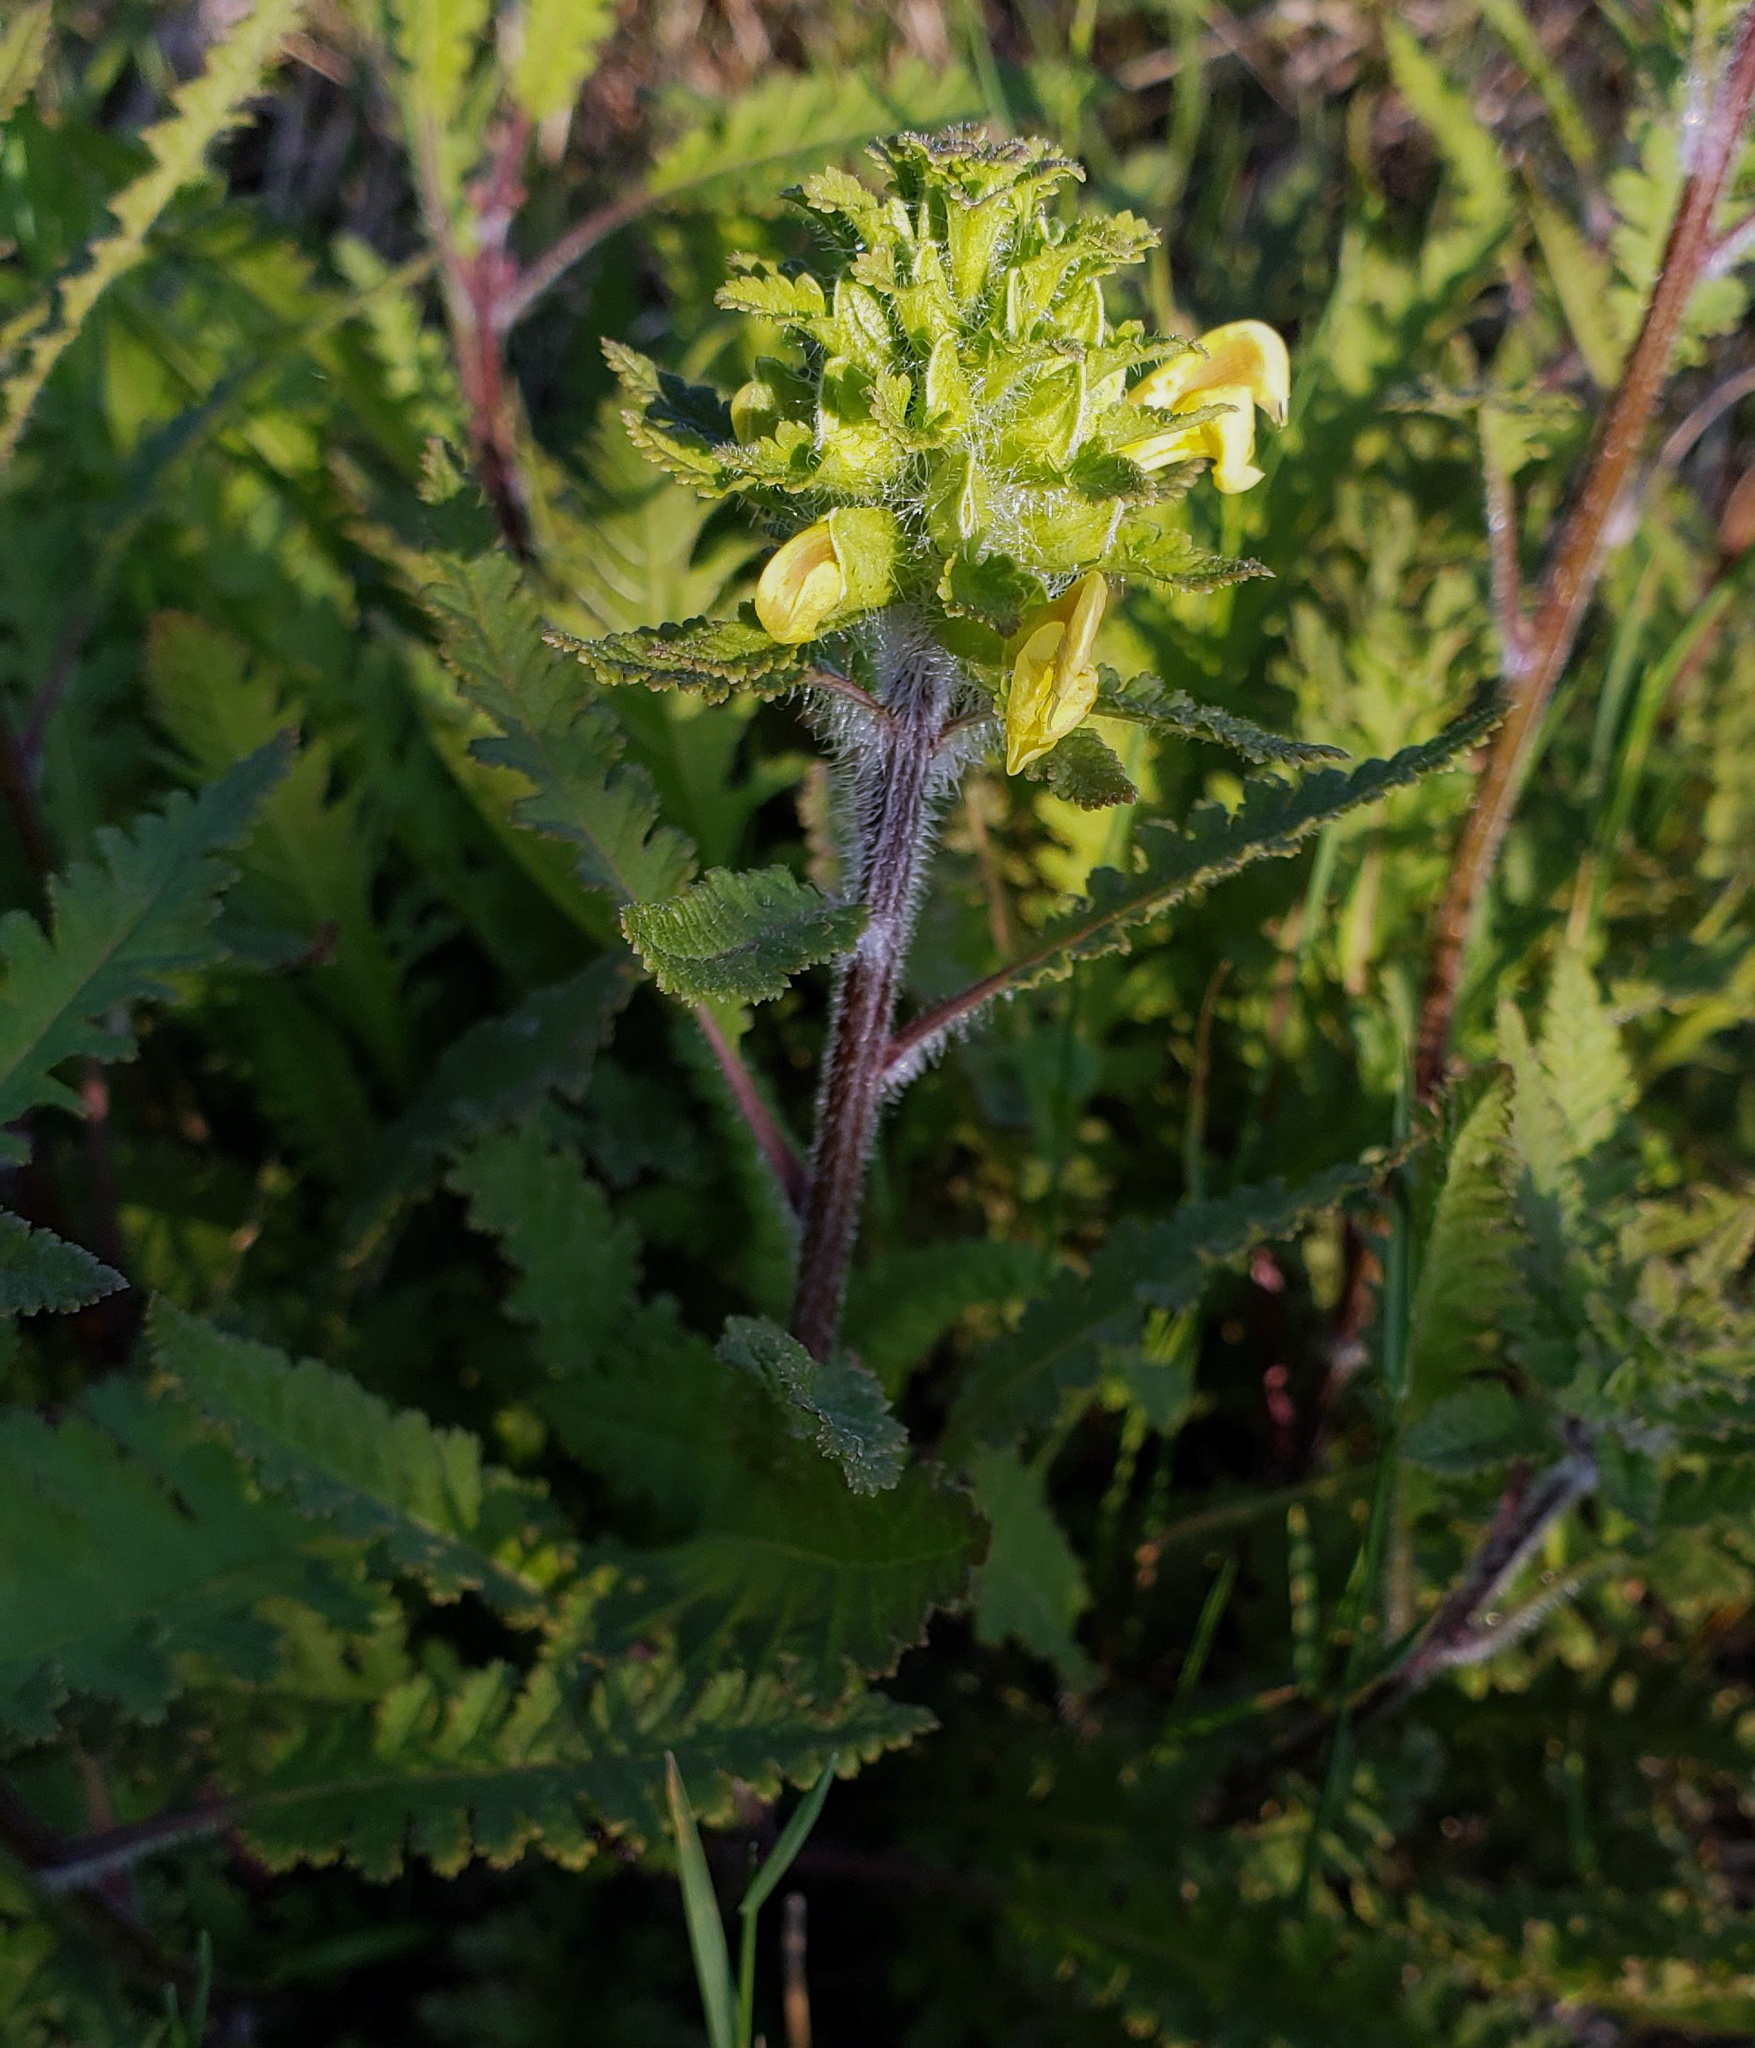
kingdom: Plantae
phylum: Tracheophyta
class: Magnoliopsida
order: Lamiales
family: Orobanchaceae
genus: Pedicularis
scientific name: Pedicularis canadensis
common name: Early lousewort
